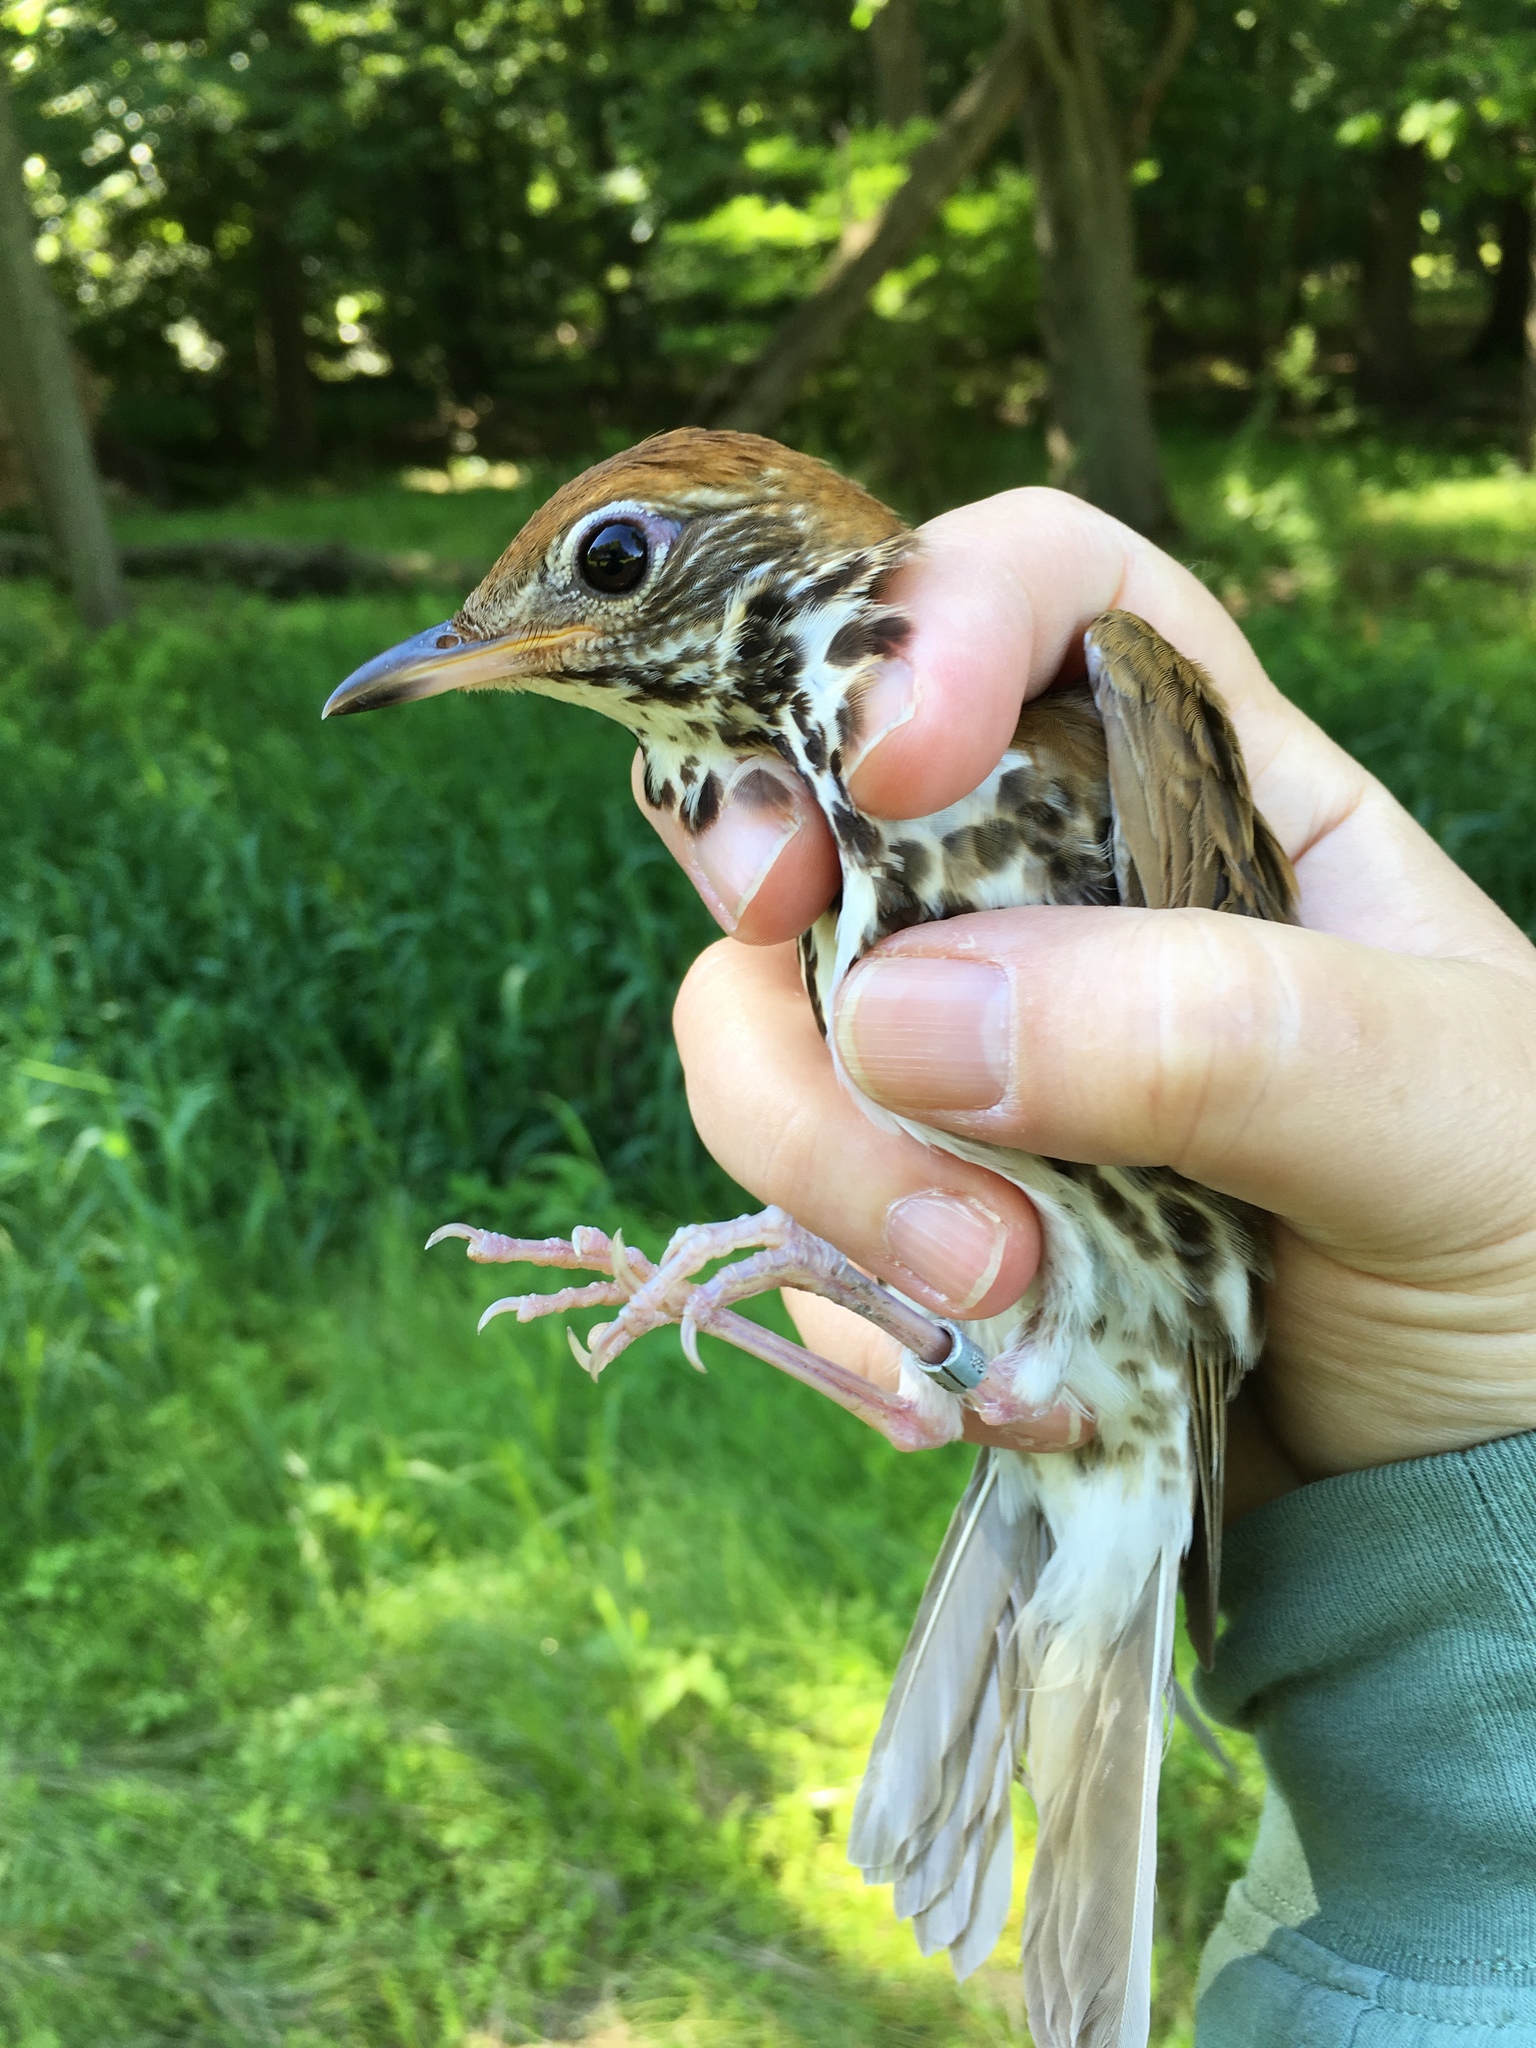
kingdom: Animalia
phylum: Chordata
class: Aves
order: Passeriformes
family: Turdidae
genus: Hylocichla
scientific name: Hylocichla mustelina
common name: Wood thrush
